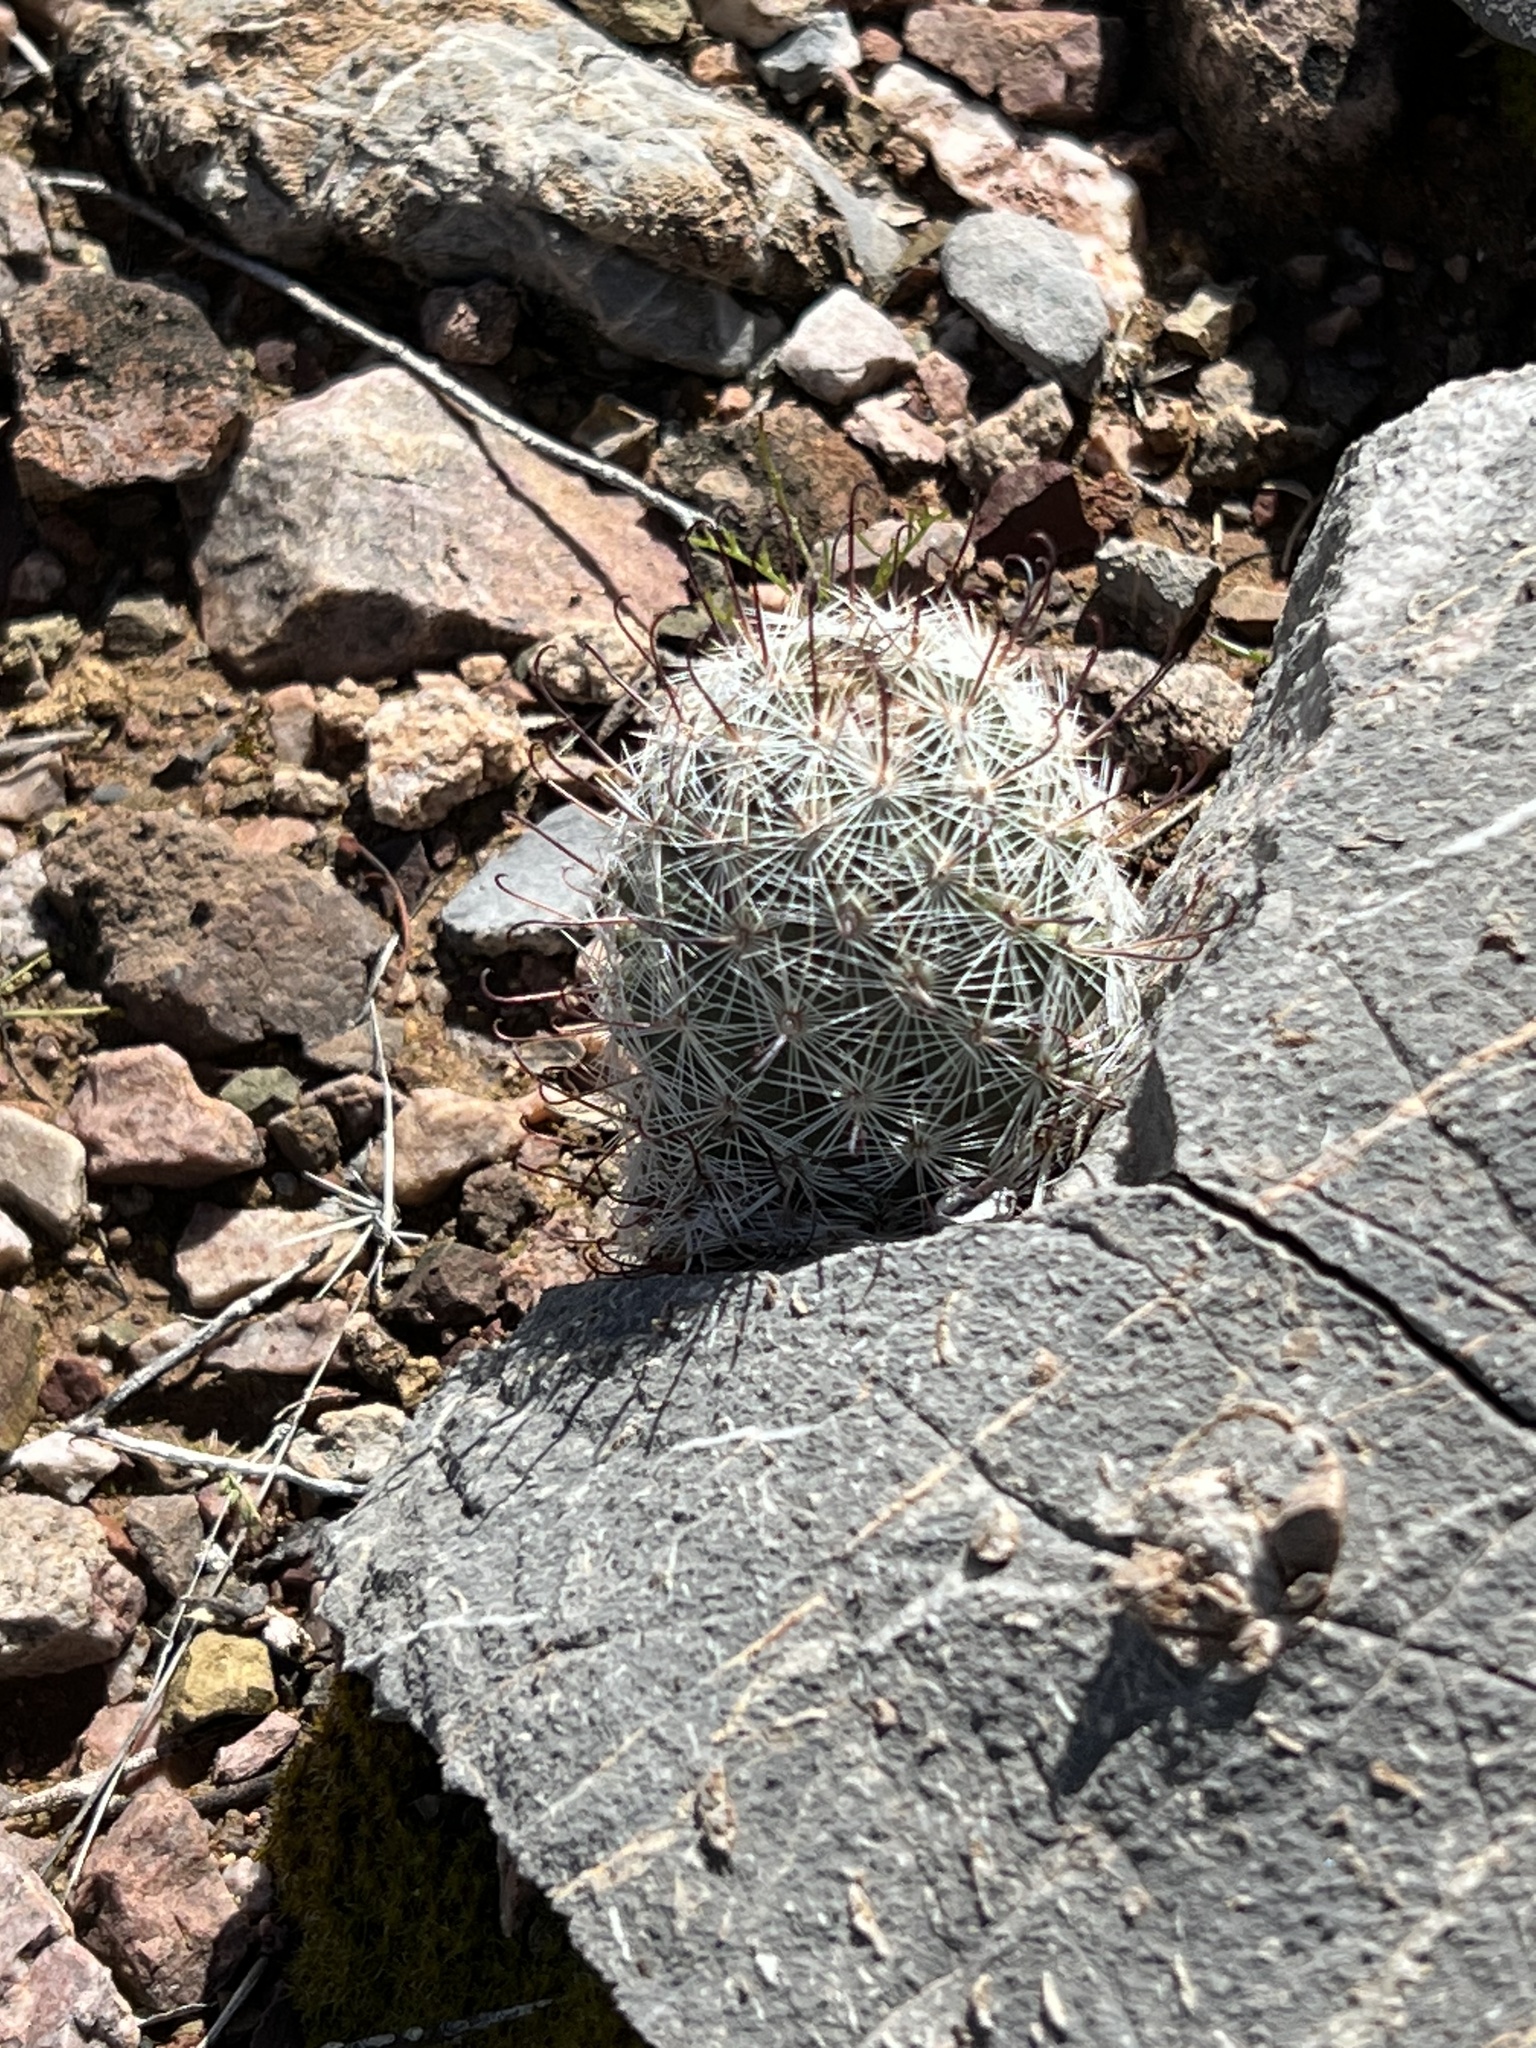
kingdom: Plantae
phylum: Tracheophyta
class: Magnoliopsida
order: Caryophyllales
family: Cactaceae
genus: Cochemiea
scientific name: Cochemiea grahamii
